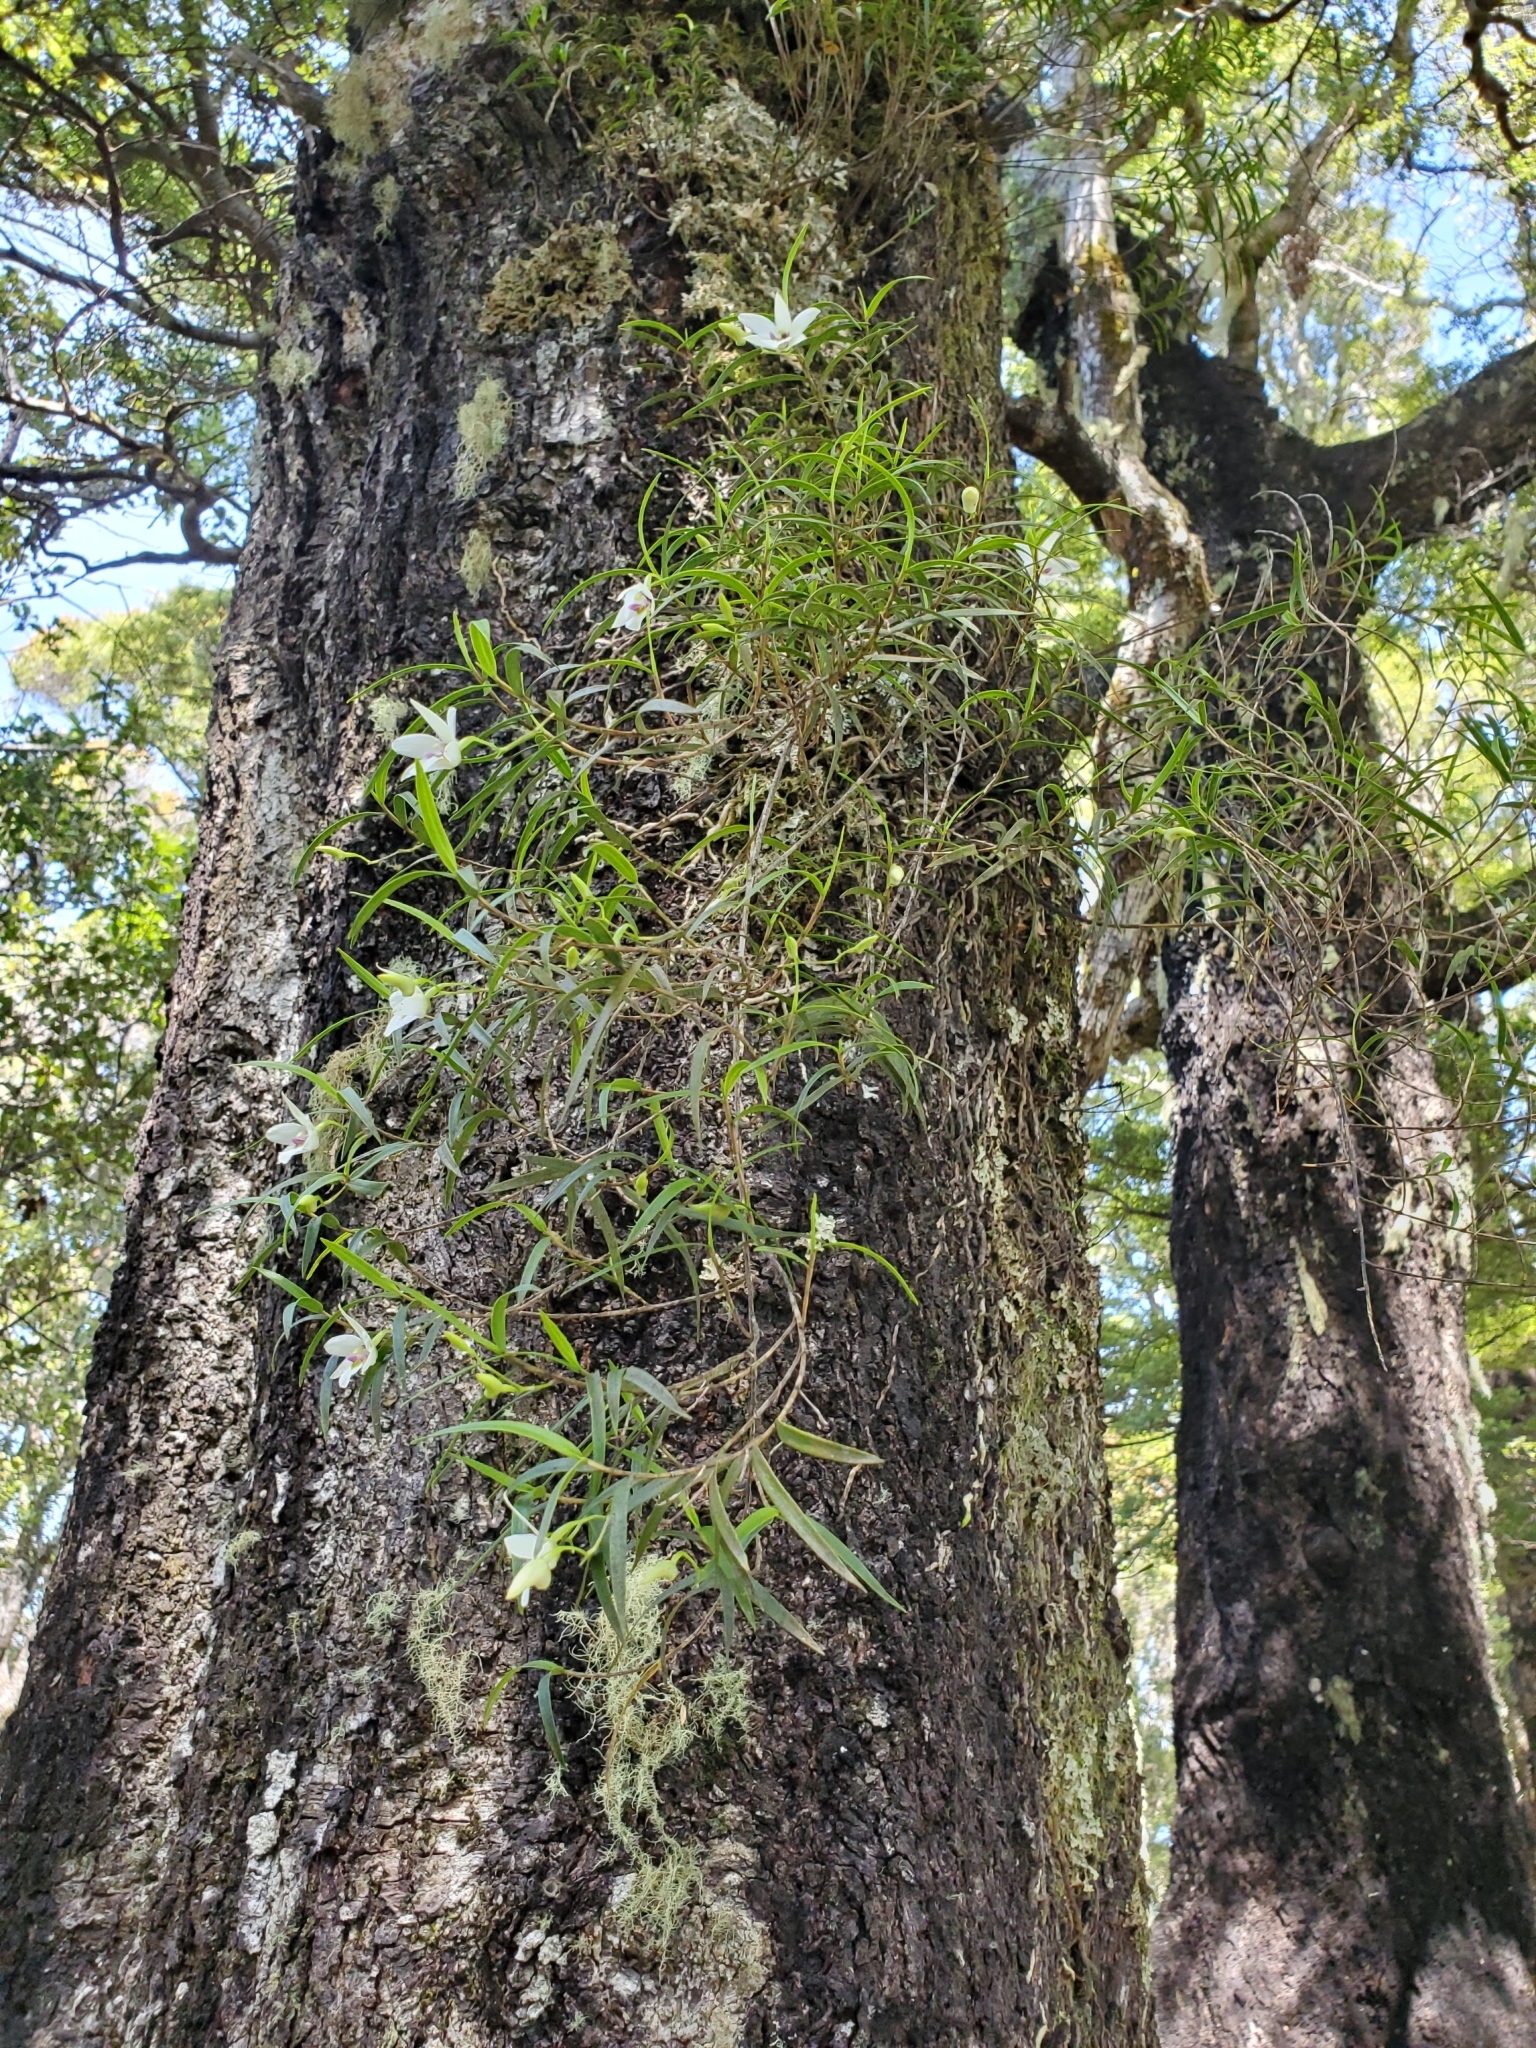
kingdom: Plantae
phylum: Tracheophyta
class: Liliopsida
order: Asparagales
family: Orchidaceae
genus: Dendrobium
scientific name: Dendrobium cunninghamii
